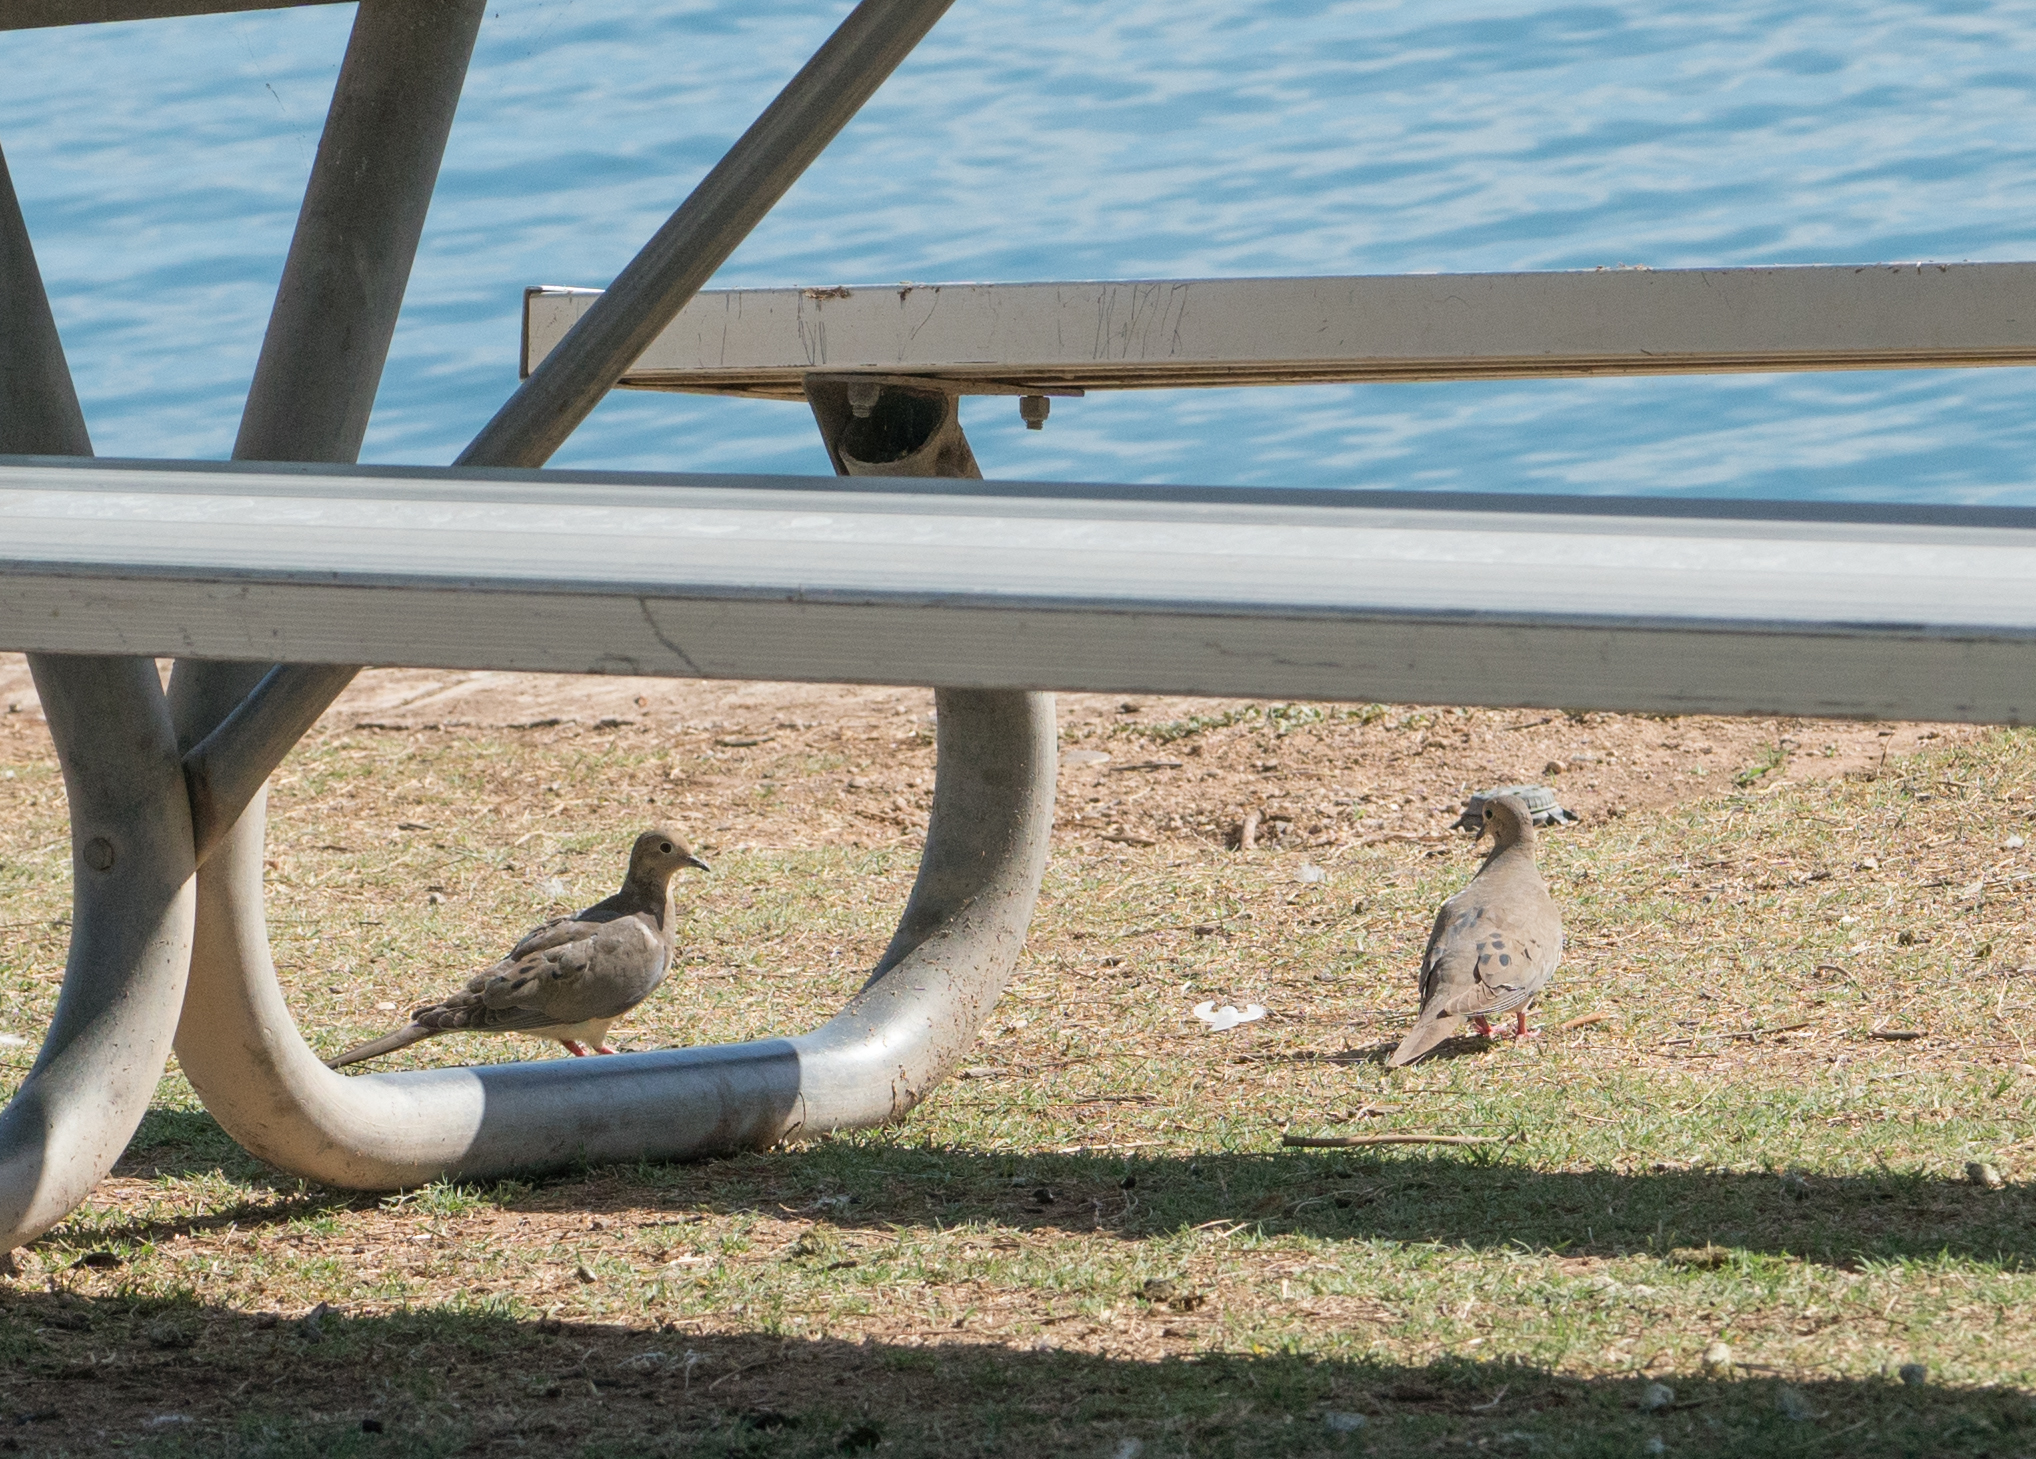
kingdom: Animalia
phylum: Chordata
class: Aves
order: Columbiformes
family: Columbidae
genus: Zenaida
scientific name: Zenaida macroura
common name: Mourning dove
